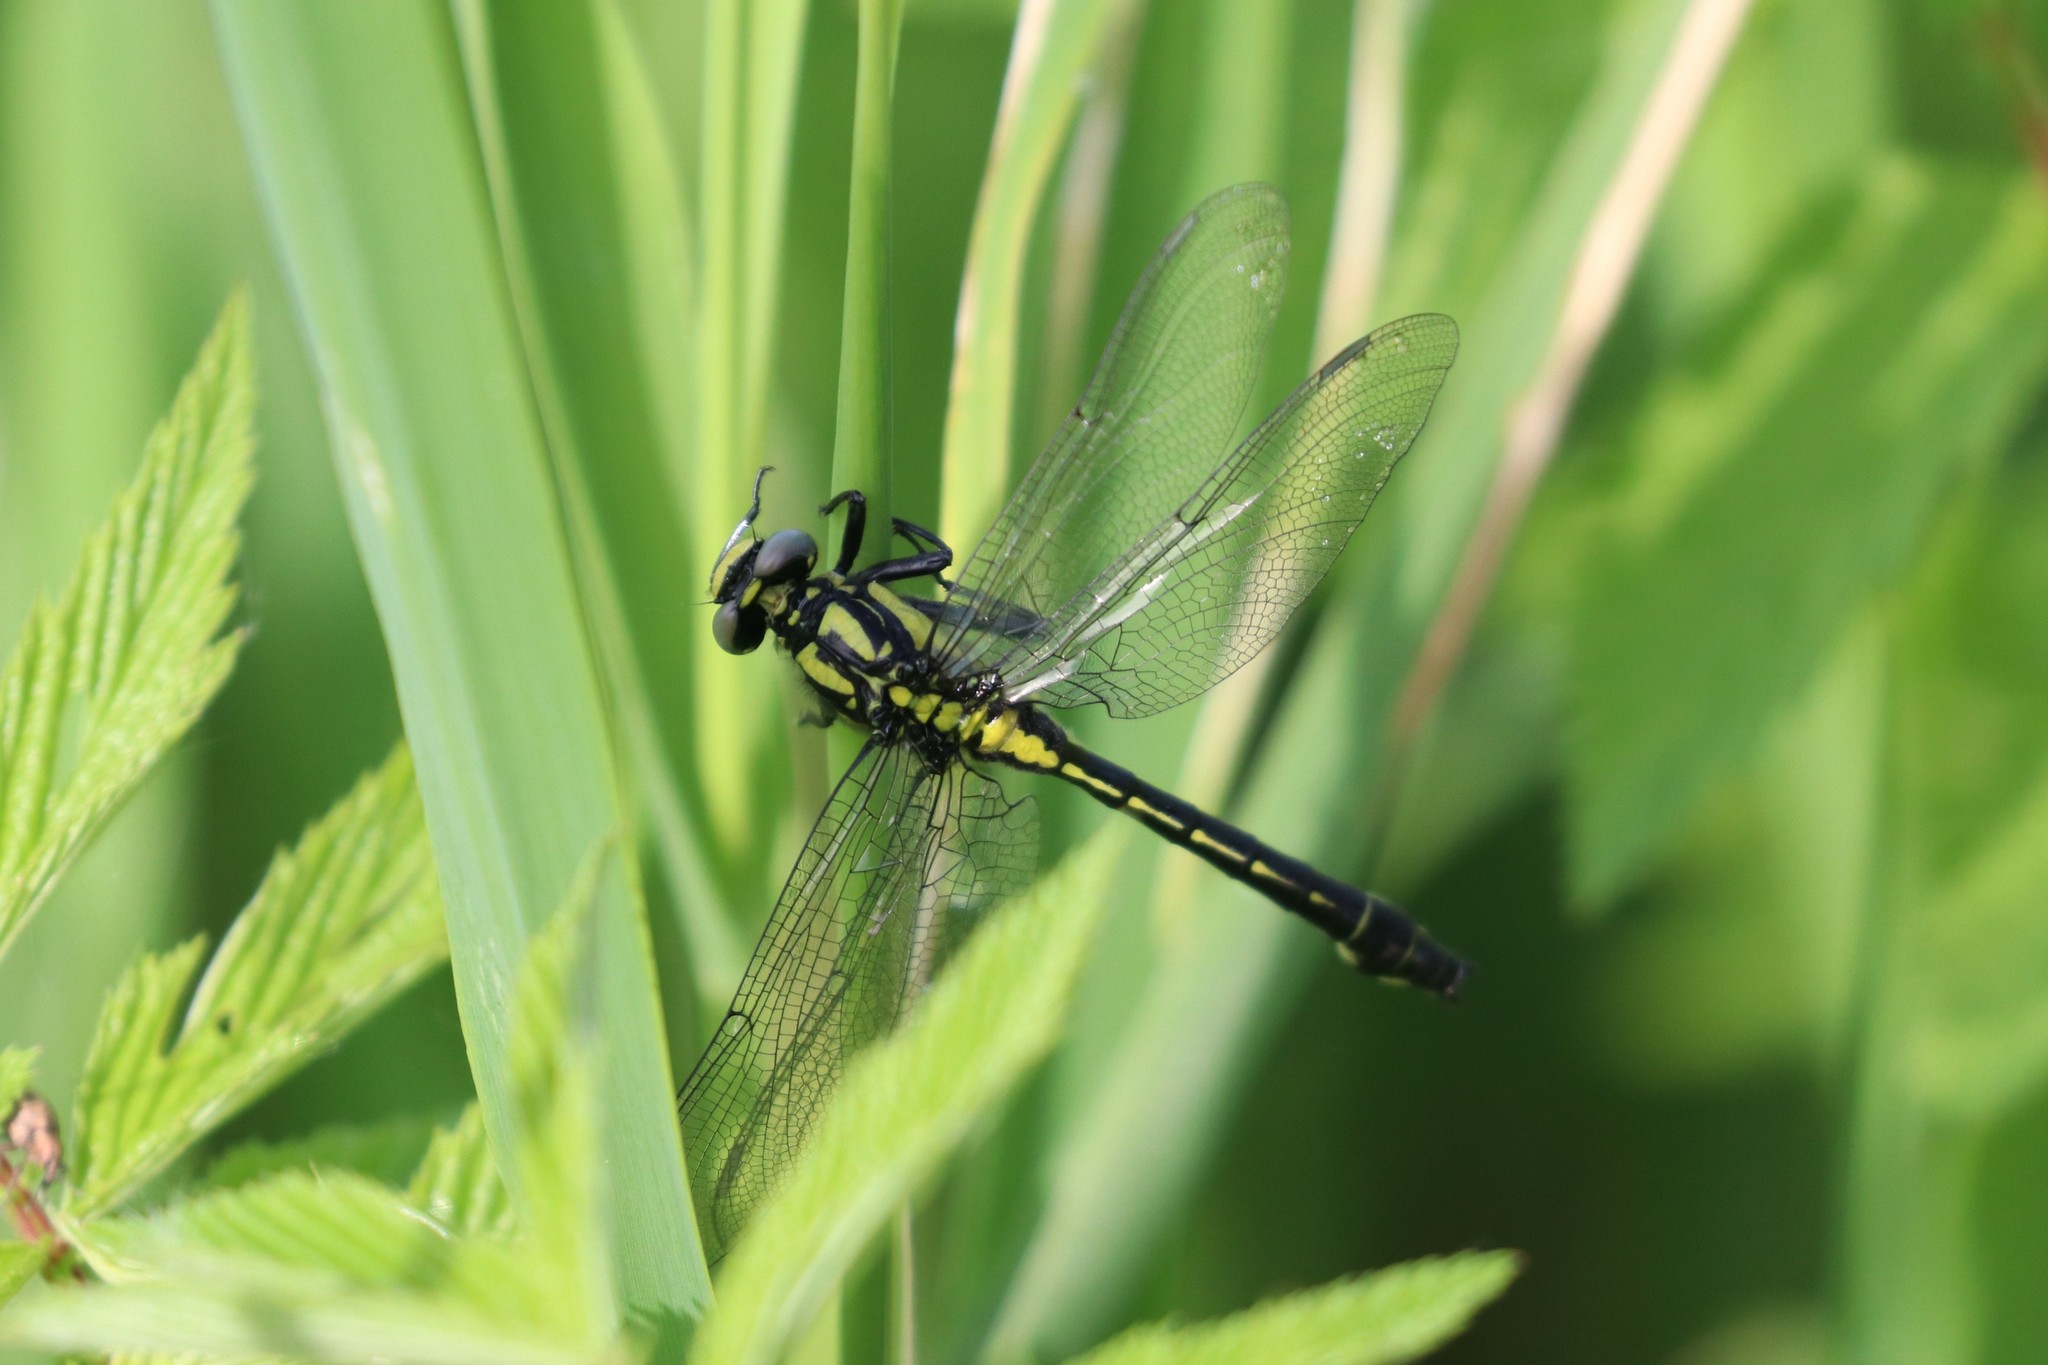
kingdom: Animalia
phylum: Arthropoda
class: Insecta
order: Odonata
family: Gomphidae
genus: Gomphus
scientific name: Gomphus vulgatissimus
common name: Club-tailed dragonfly
